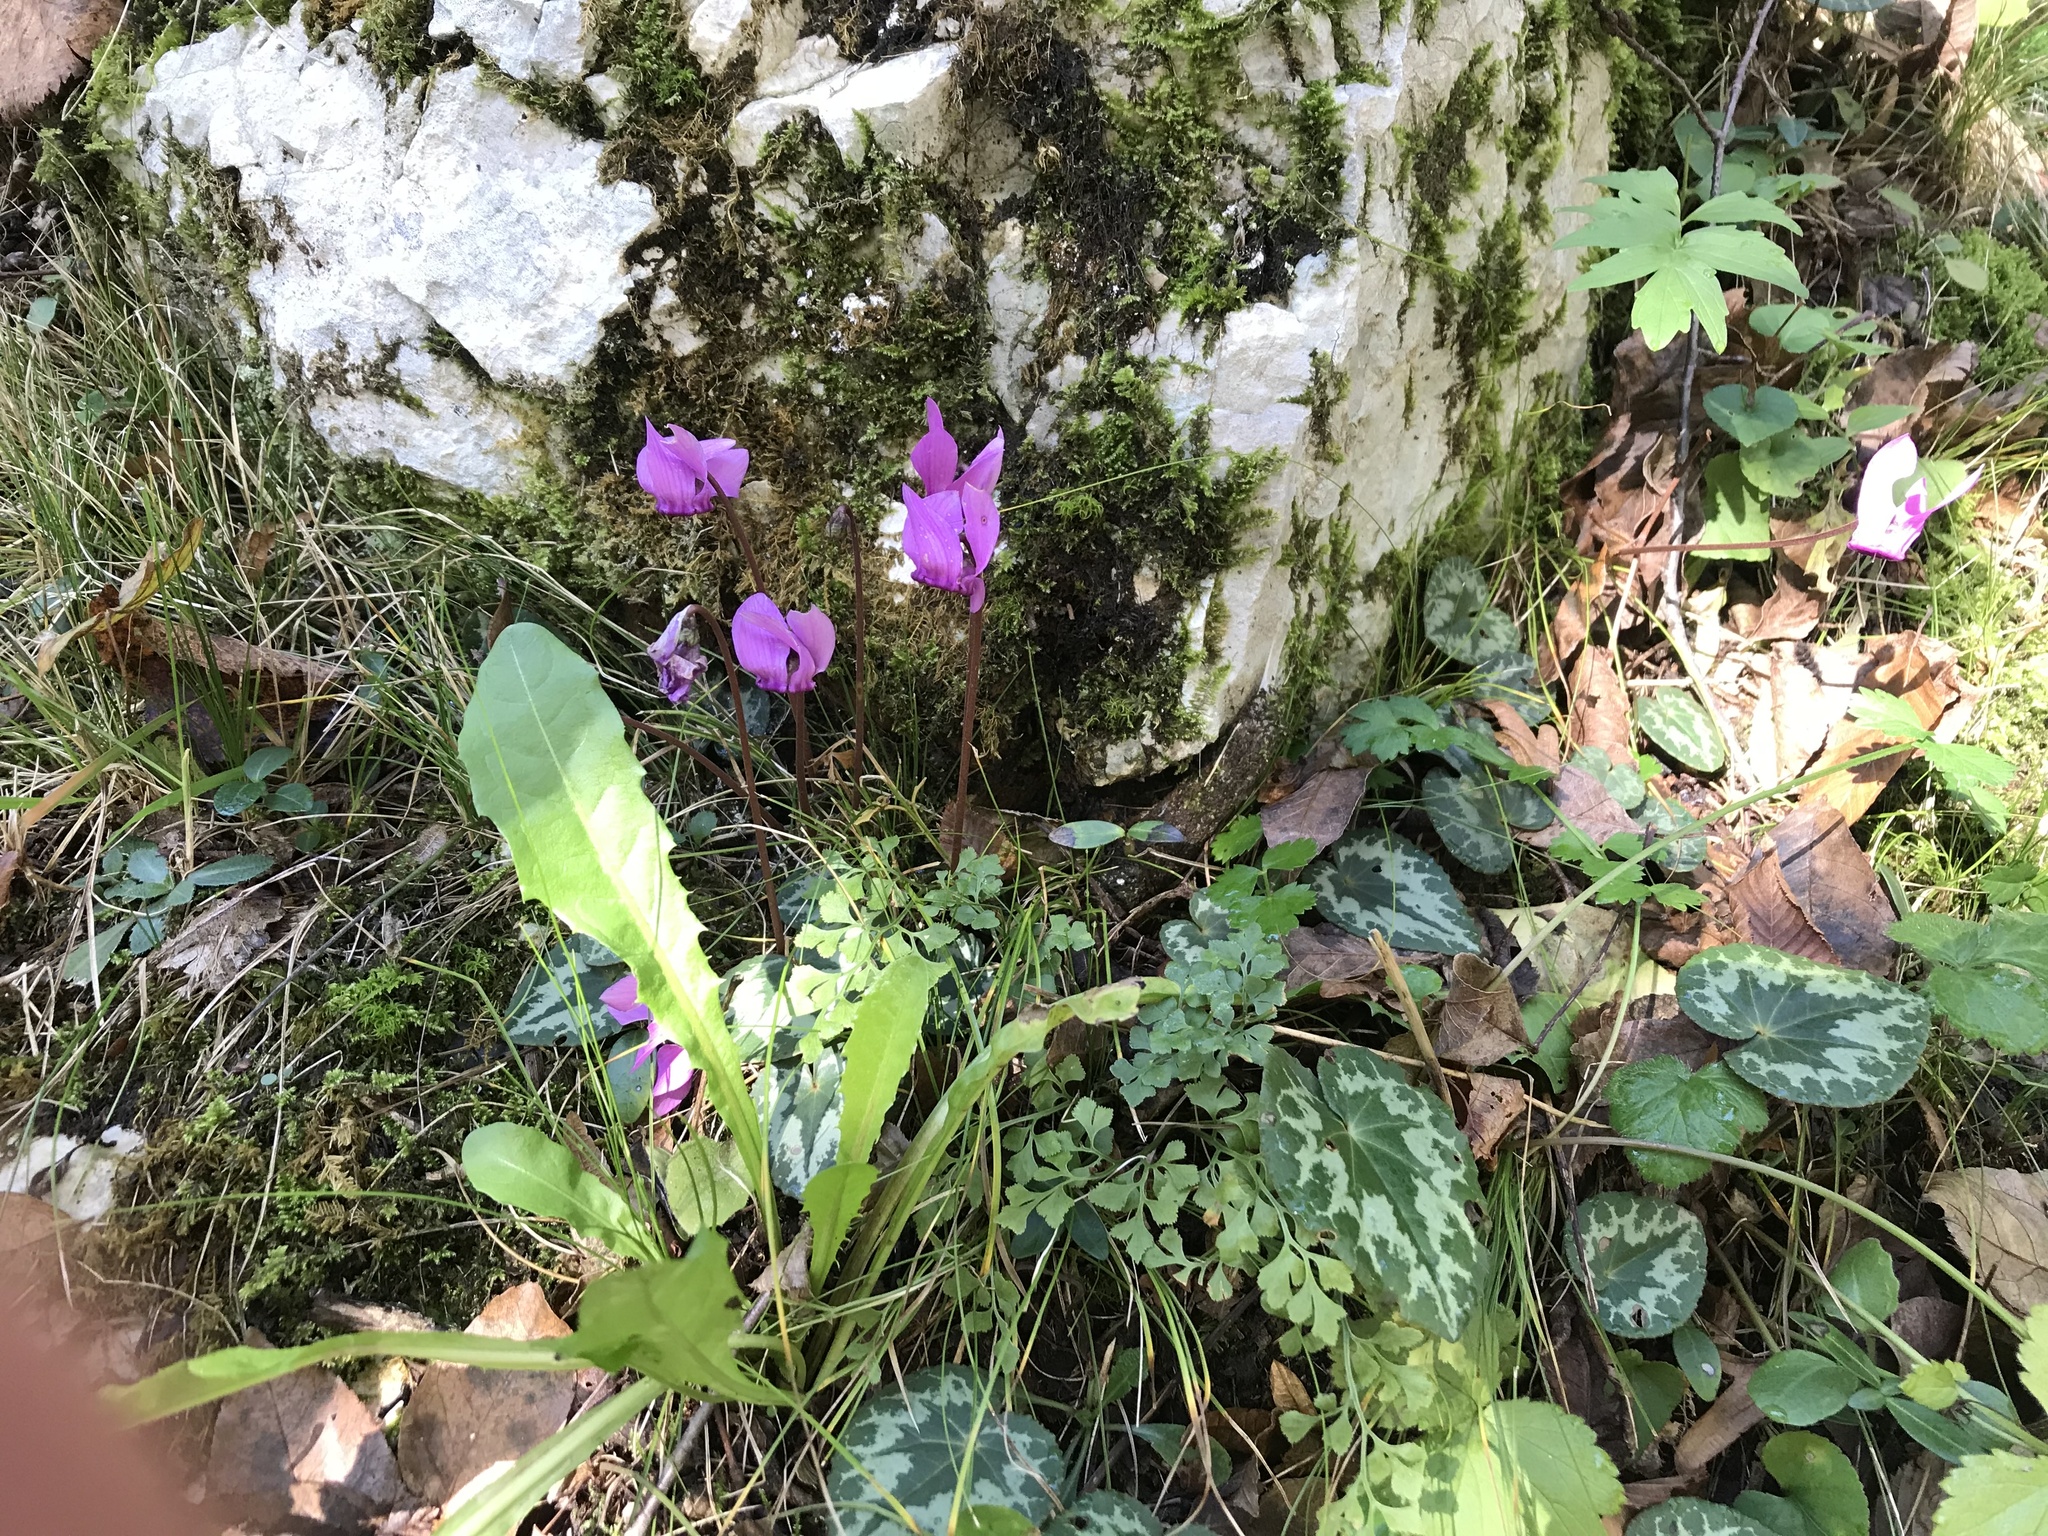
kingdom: Plantae
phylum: Tracheophyta
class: Magnoliopsida
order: Ericales
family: Primulaceae
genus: Cyclamen
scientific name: Cyclamen purpurascens
